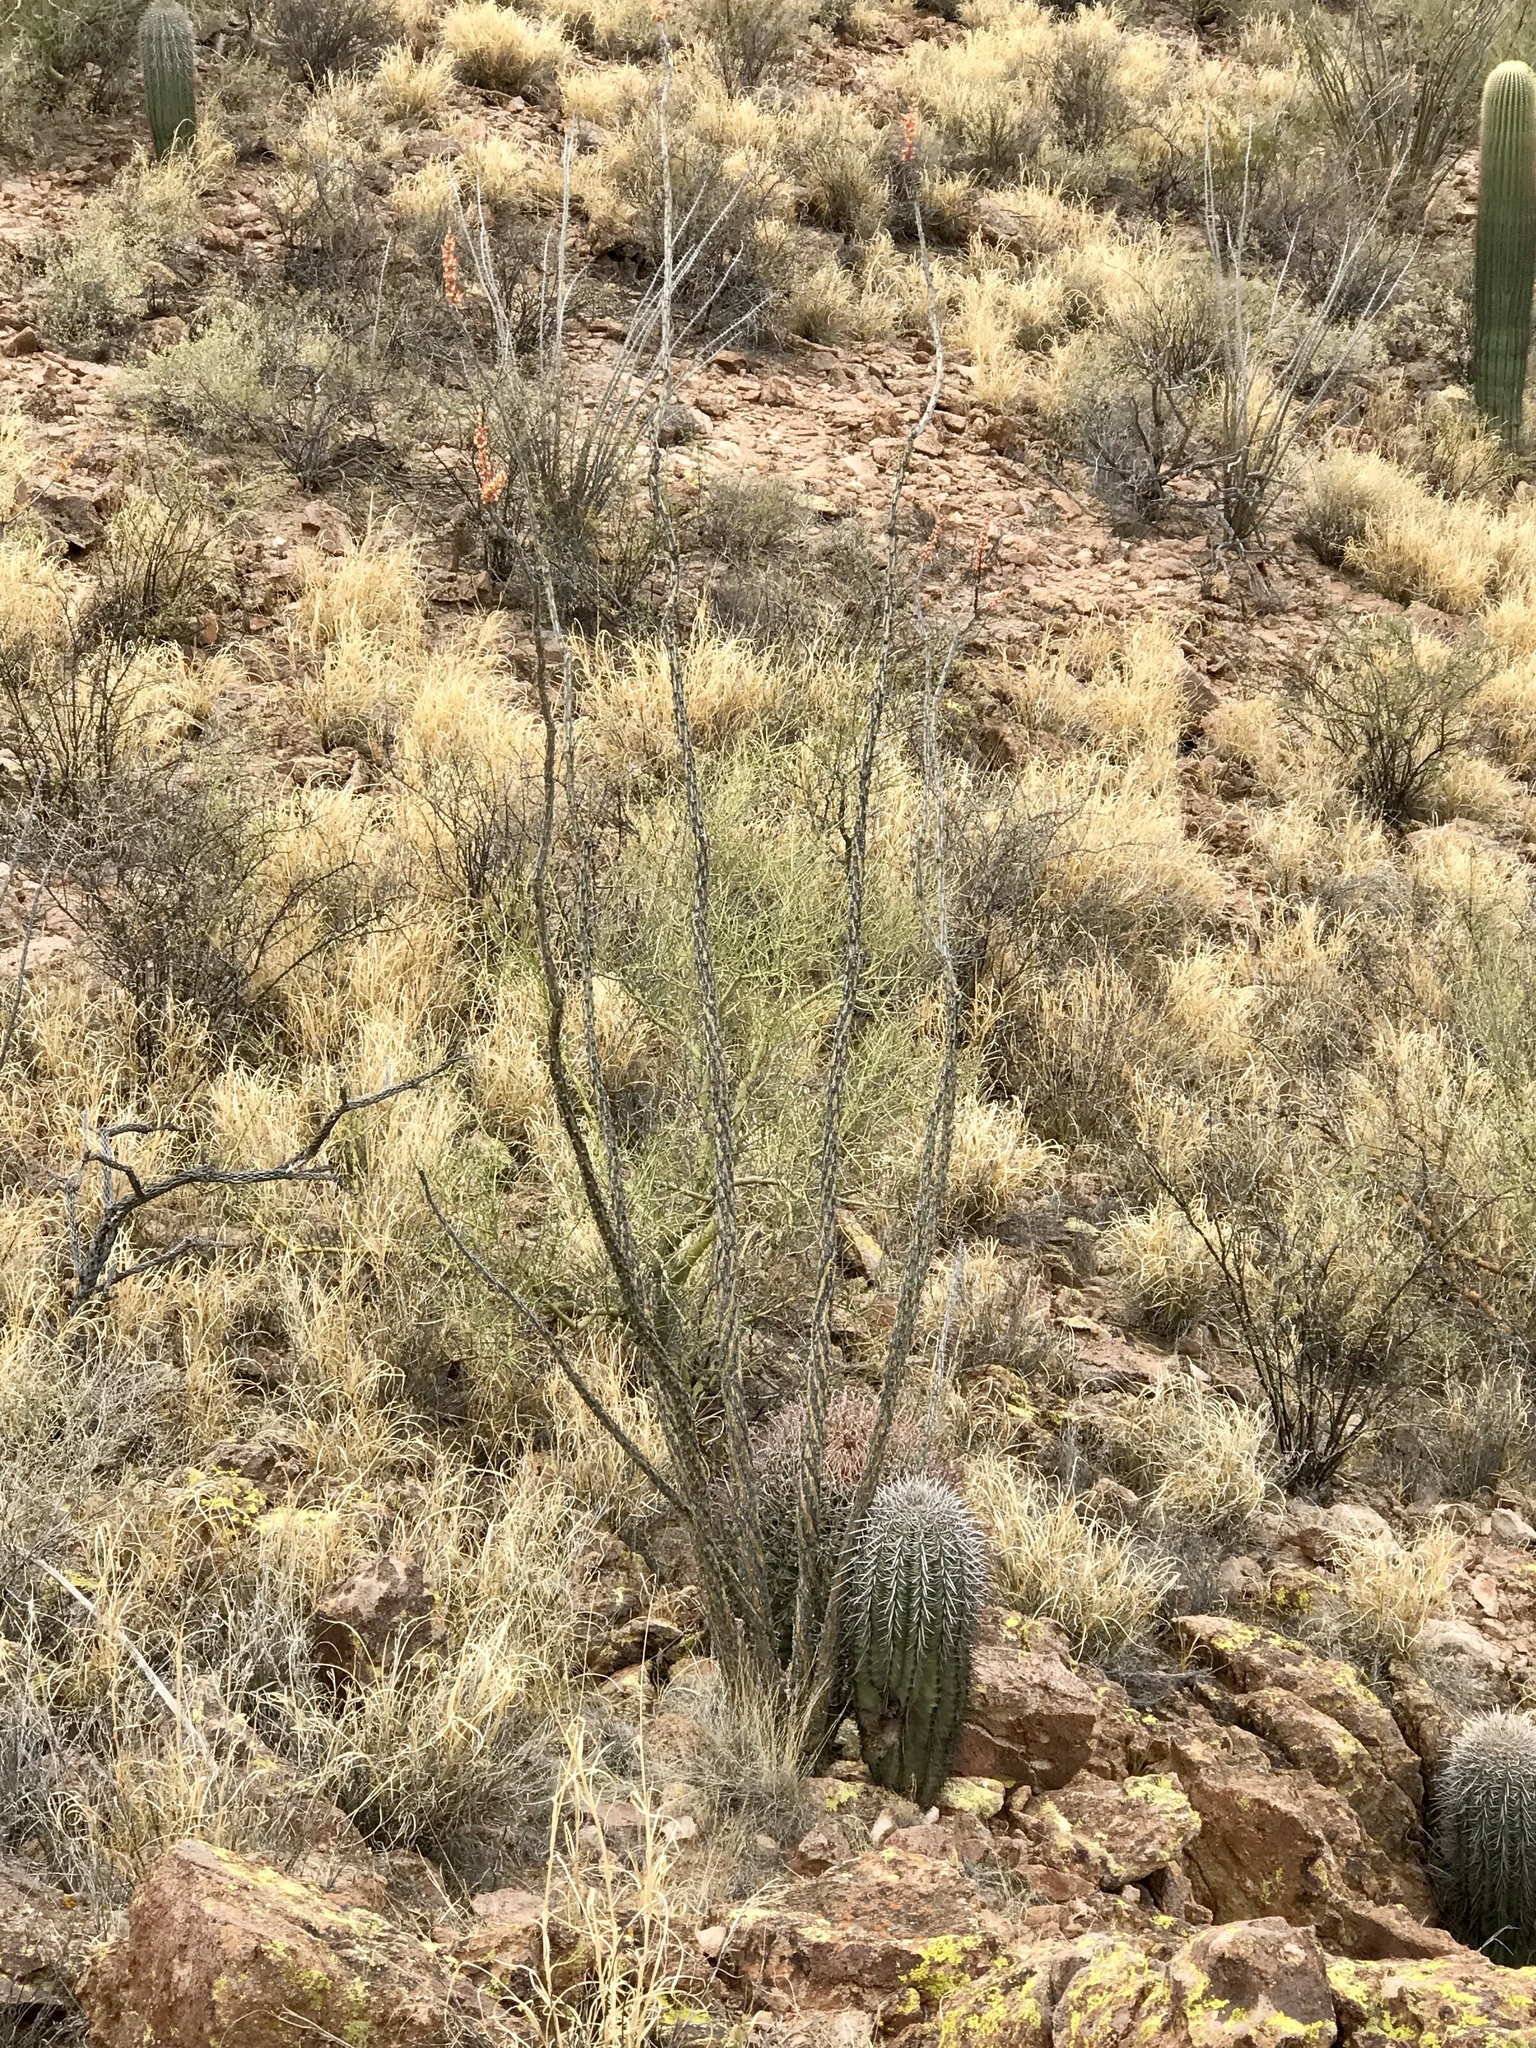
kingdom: Plantae
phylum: Tracheophyta
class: Magnoliopsida
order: Ericales
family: Fouquieriaceae
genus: Fouquieria
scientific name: Fouquieria splendens
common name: Vine-cactus
